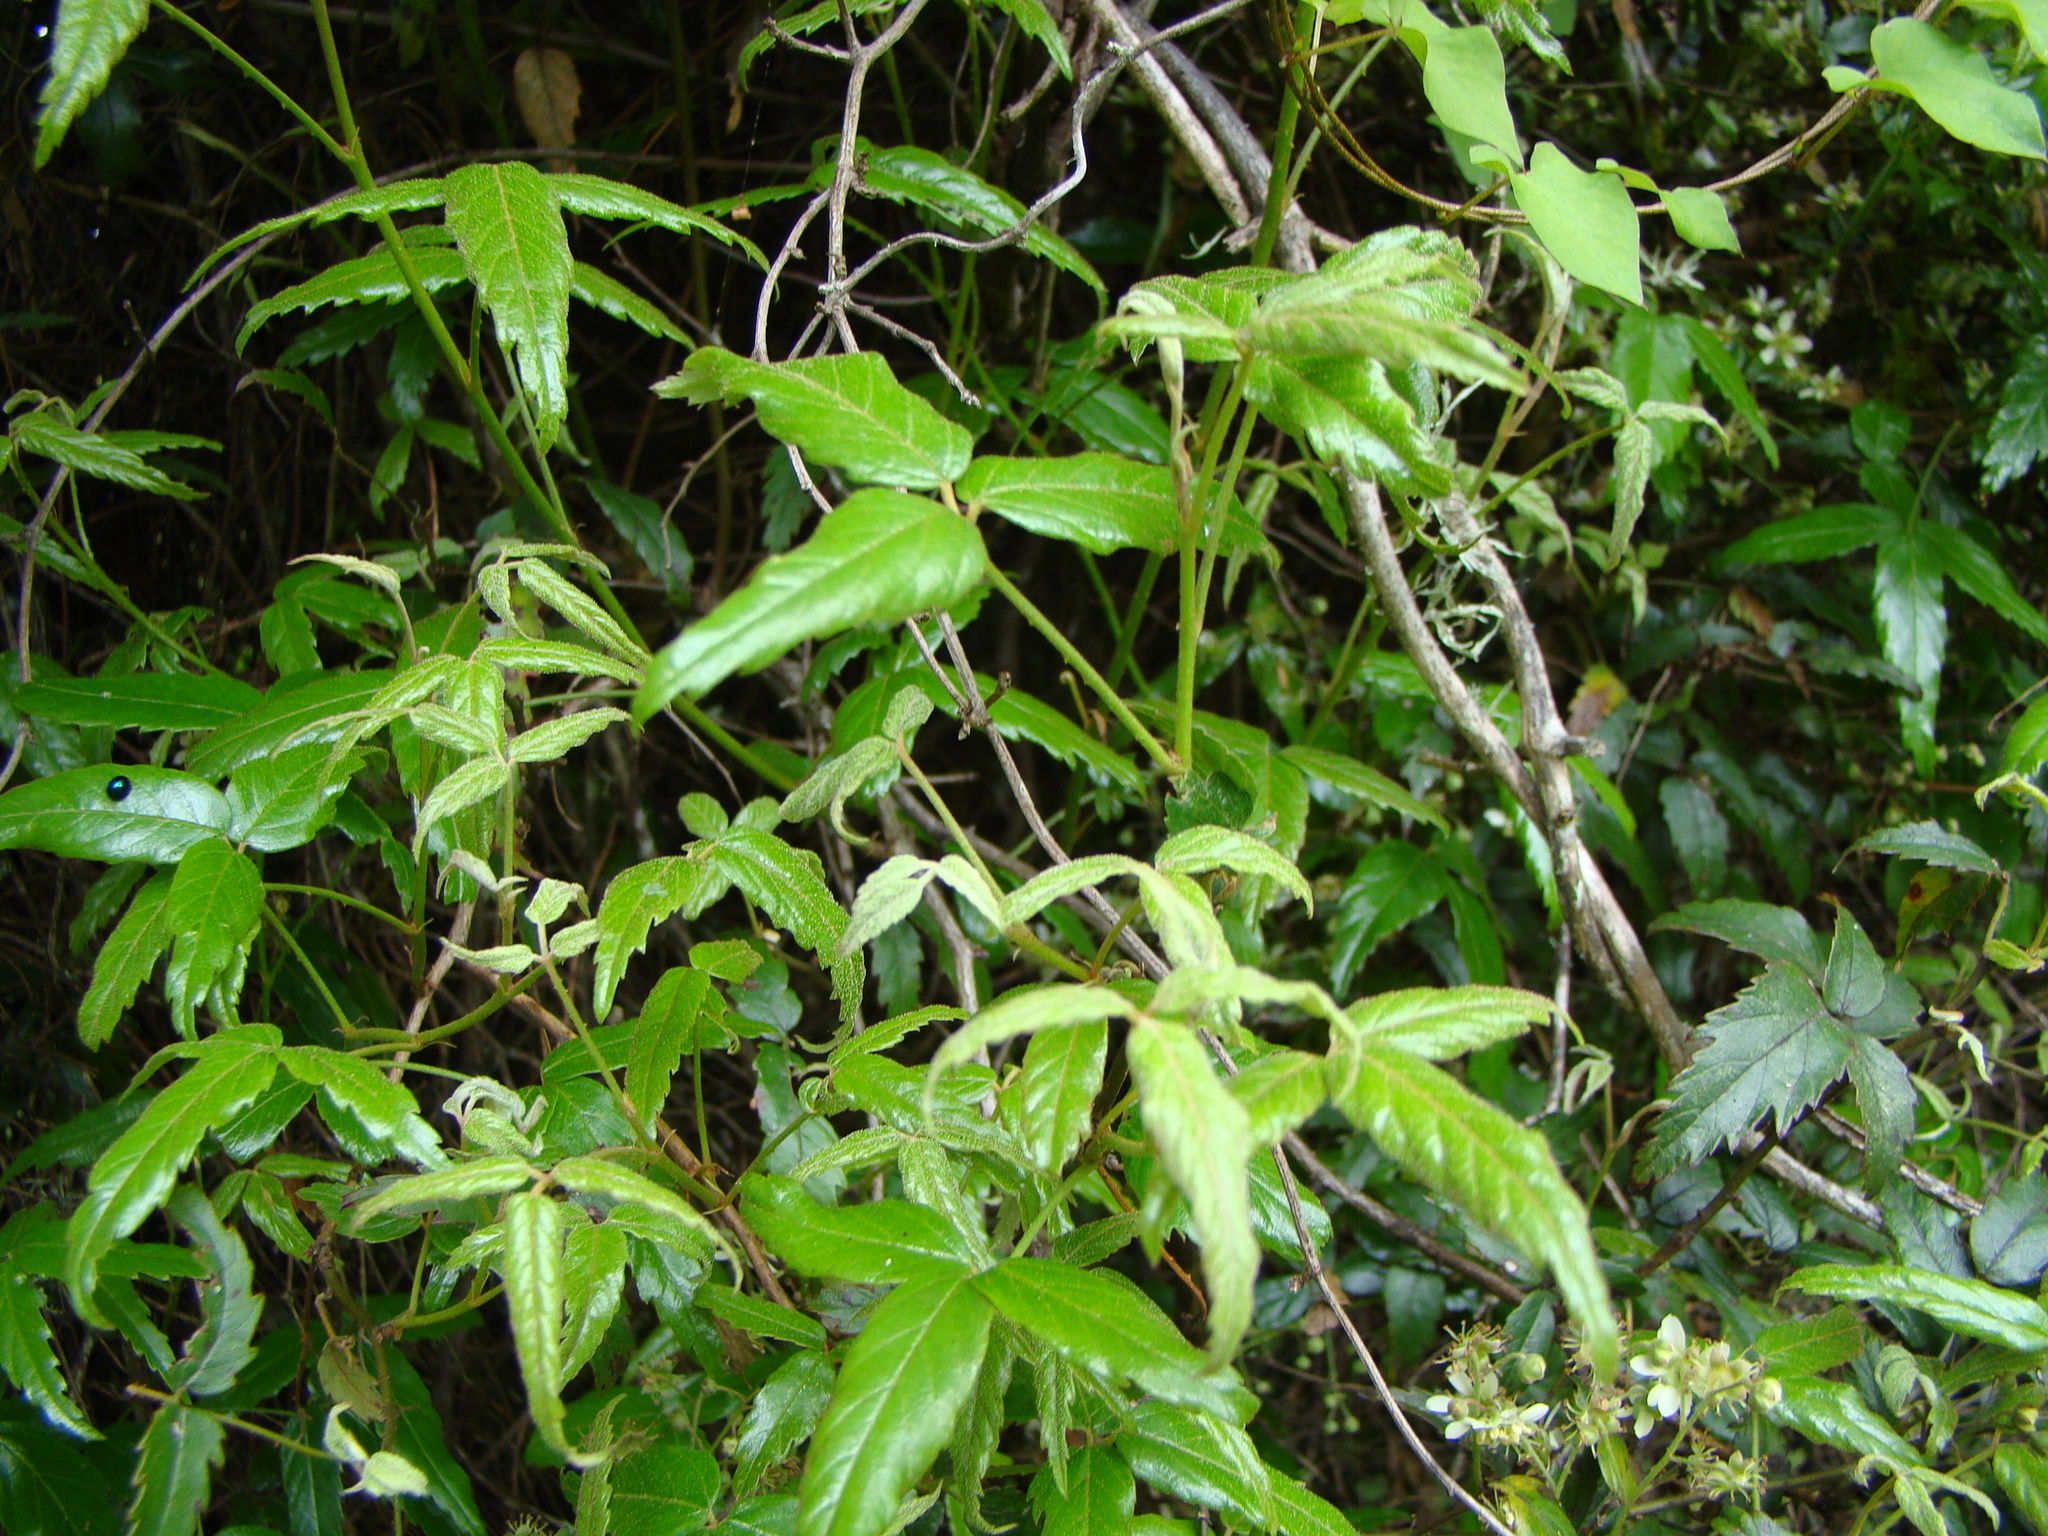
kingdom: Plantae
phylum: Tracheophyta
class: Magnoliopsida
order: Rosales
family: Rosaceae
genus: Rubus
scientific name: Rubus schmidelioides
